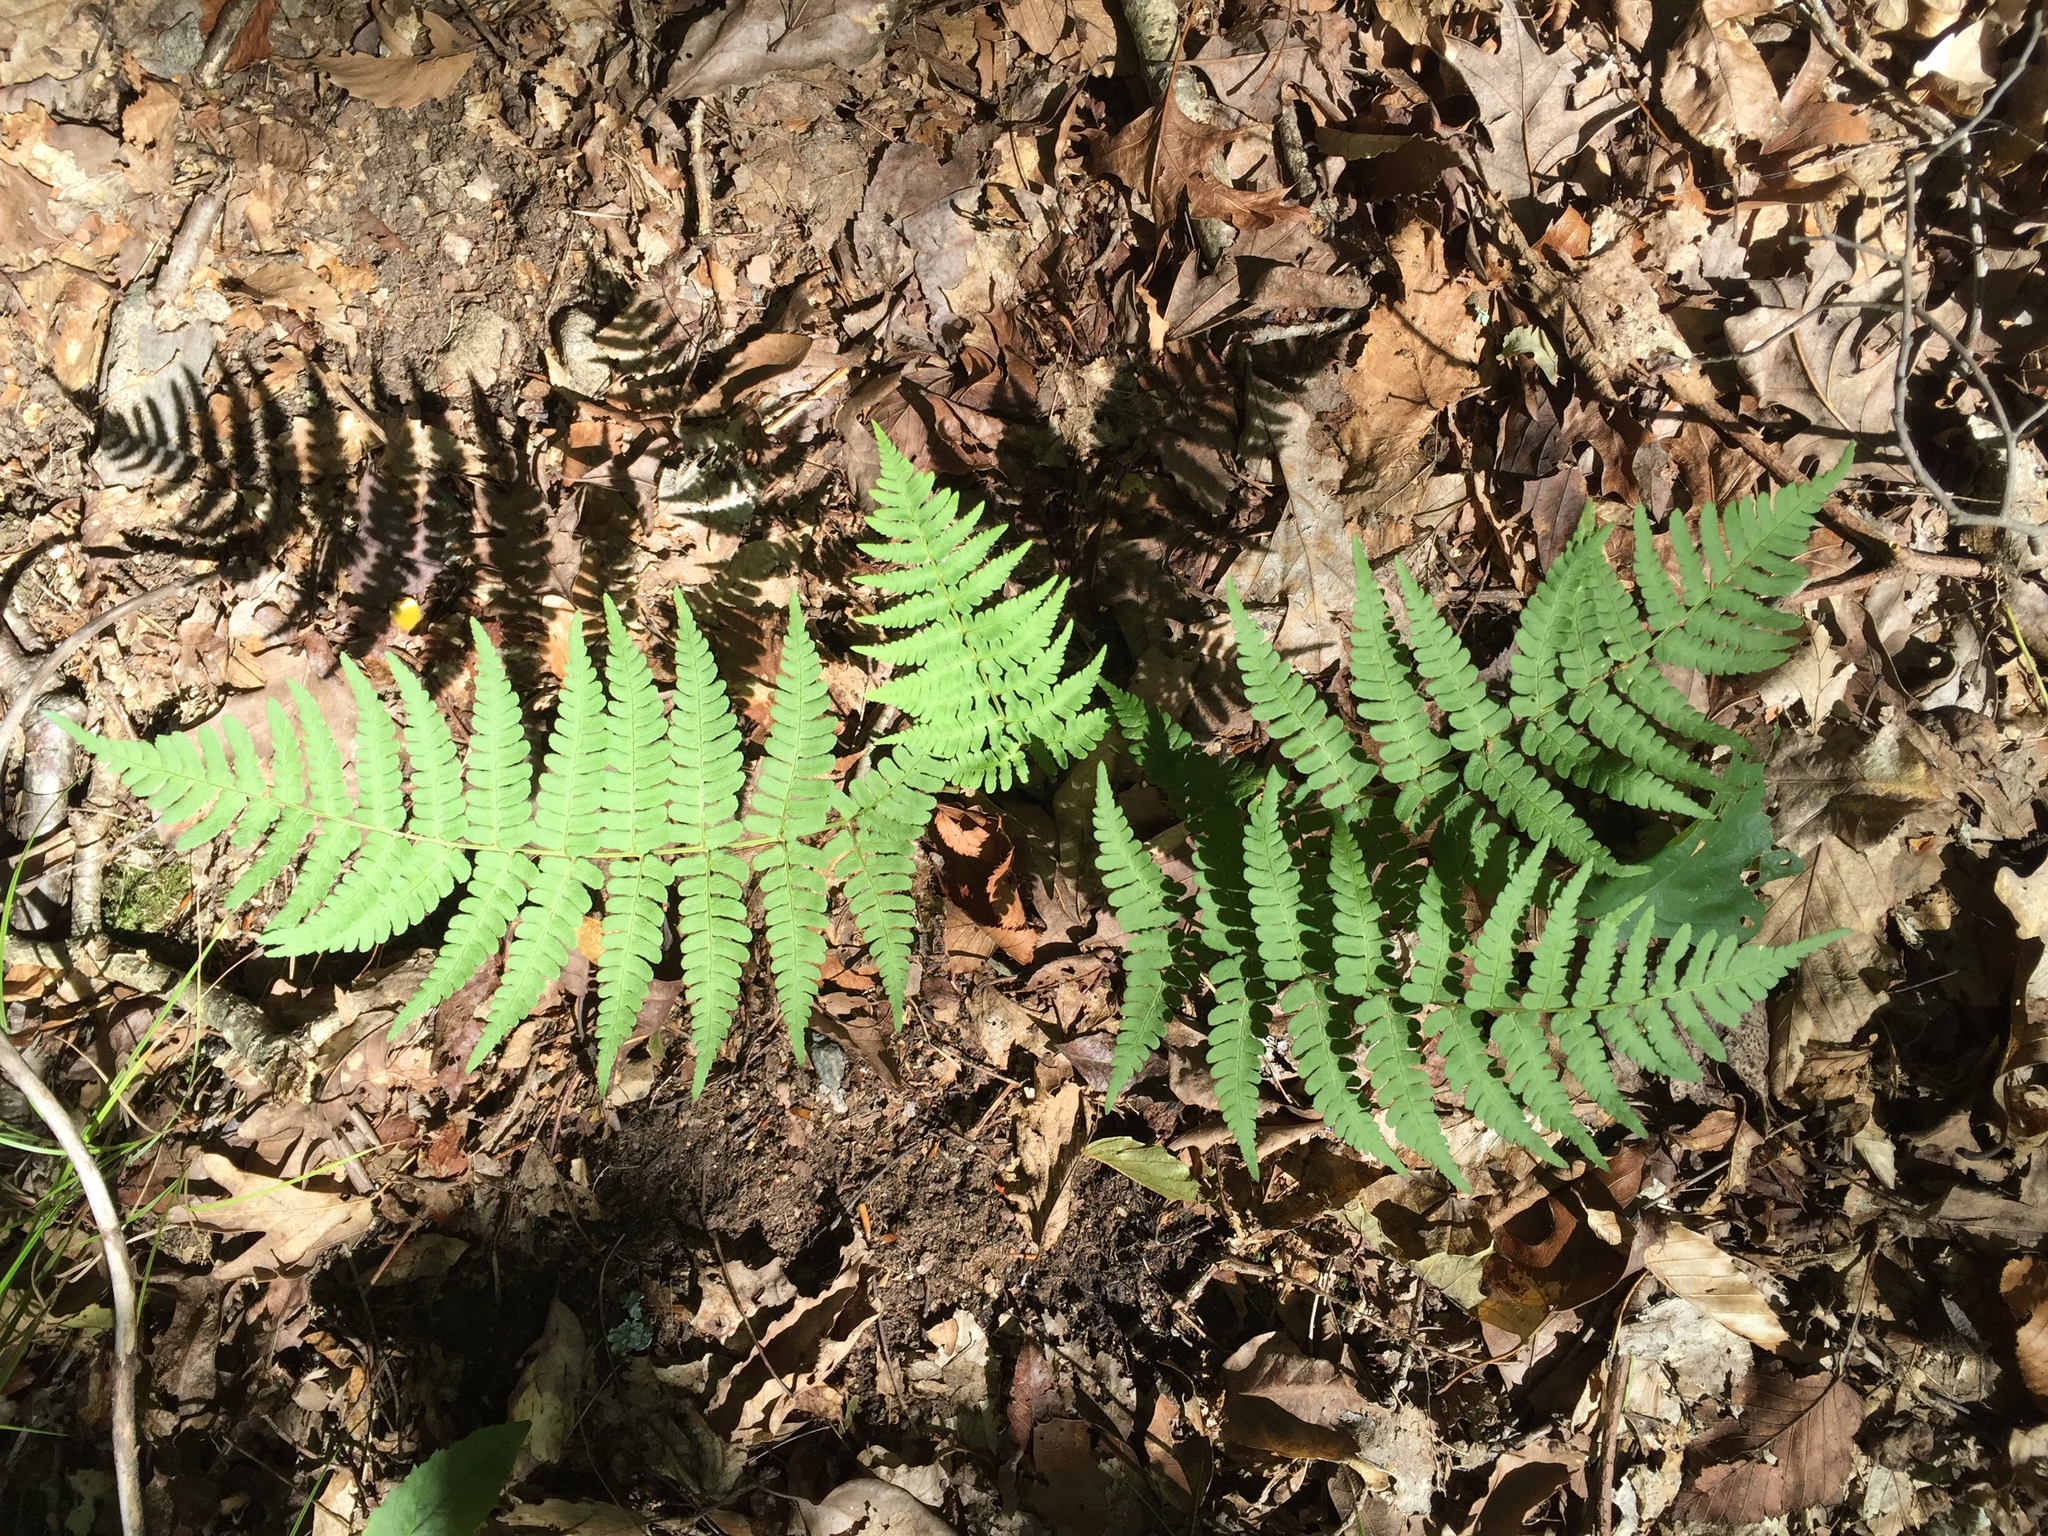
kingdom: Plantae
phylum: Tracheophyta
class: Polypodiopsida
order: Polypodiales
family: Dryopteridaceae
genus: Dryopteris
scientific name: Dryopteris marginalis
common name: Marginal wood fern
